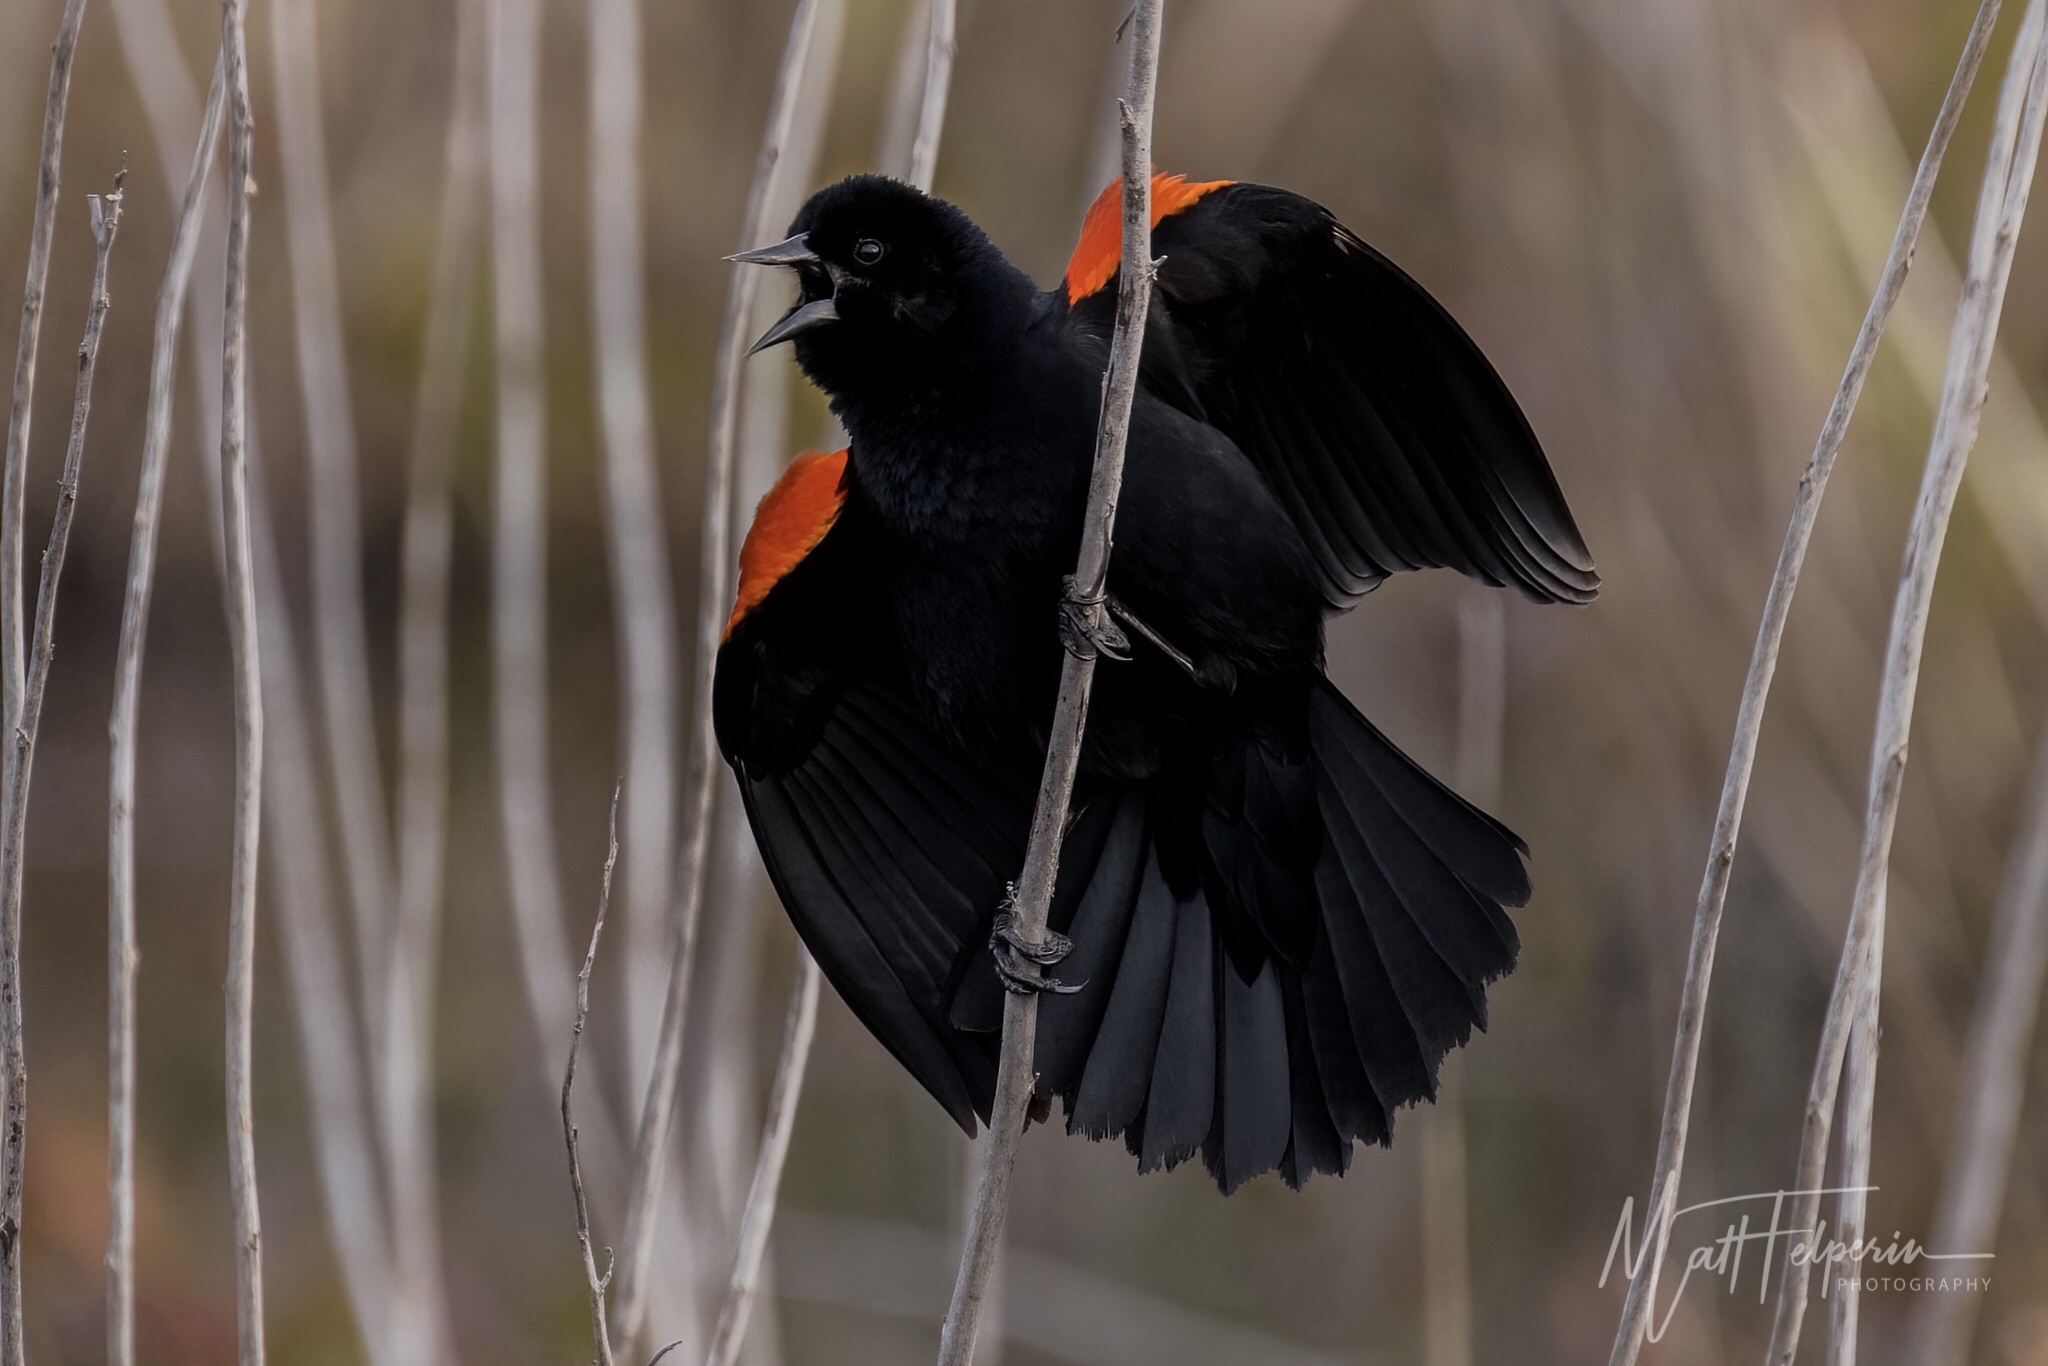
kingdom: Animalia
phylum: Chordata
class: Aves
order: Passeriformes
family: Icteridae
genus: Agelaius
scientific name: Agelaius phoeniceus
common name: Red-winged blackbird
